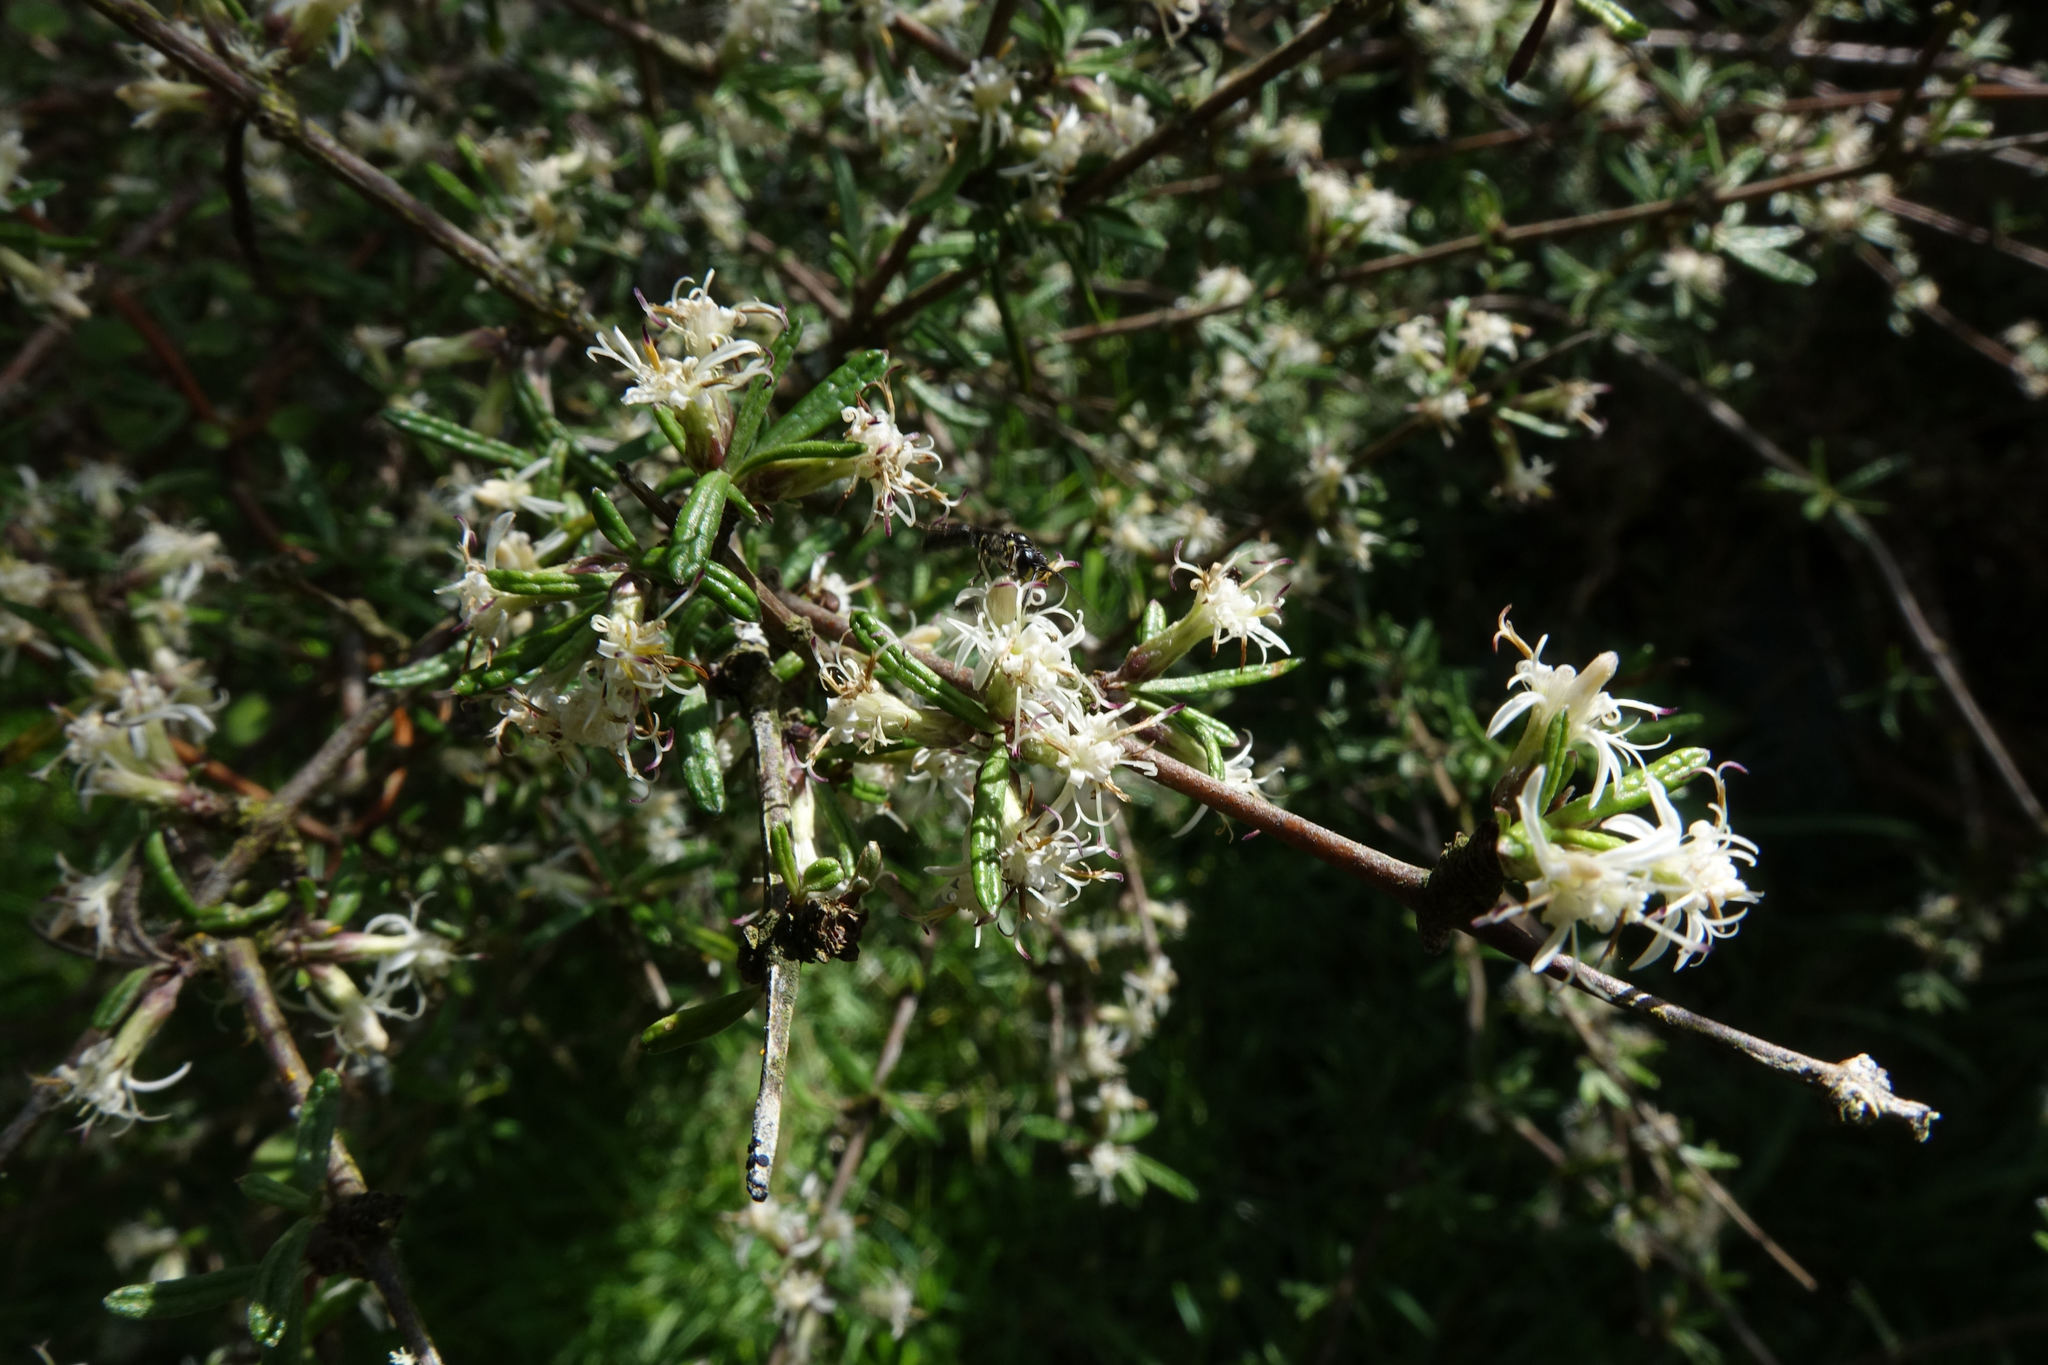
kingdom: Plantae
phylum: Tracheophyta
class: Magnoliopsida
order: Asterales
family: Asteraceae
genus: Olearia
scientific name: Olearia bullata
